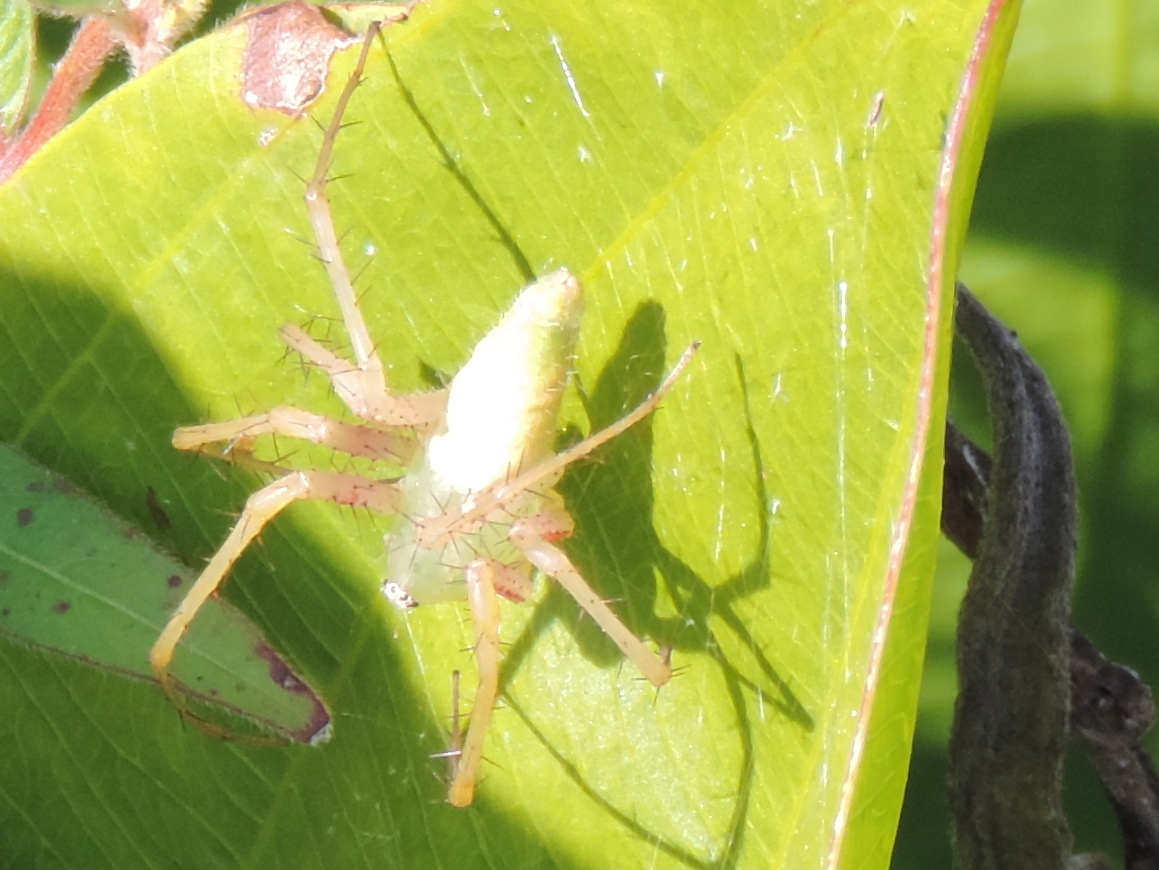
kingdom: Animalia
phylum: Arthropoda
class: Arachnida
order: Araneae
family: Oxyopidae
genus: Peucetia
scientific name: Peucetia
